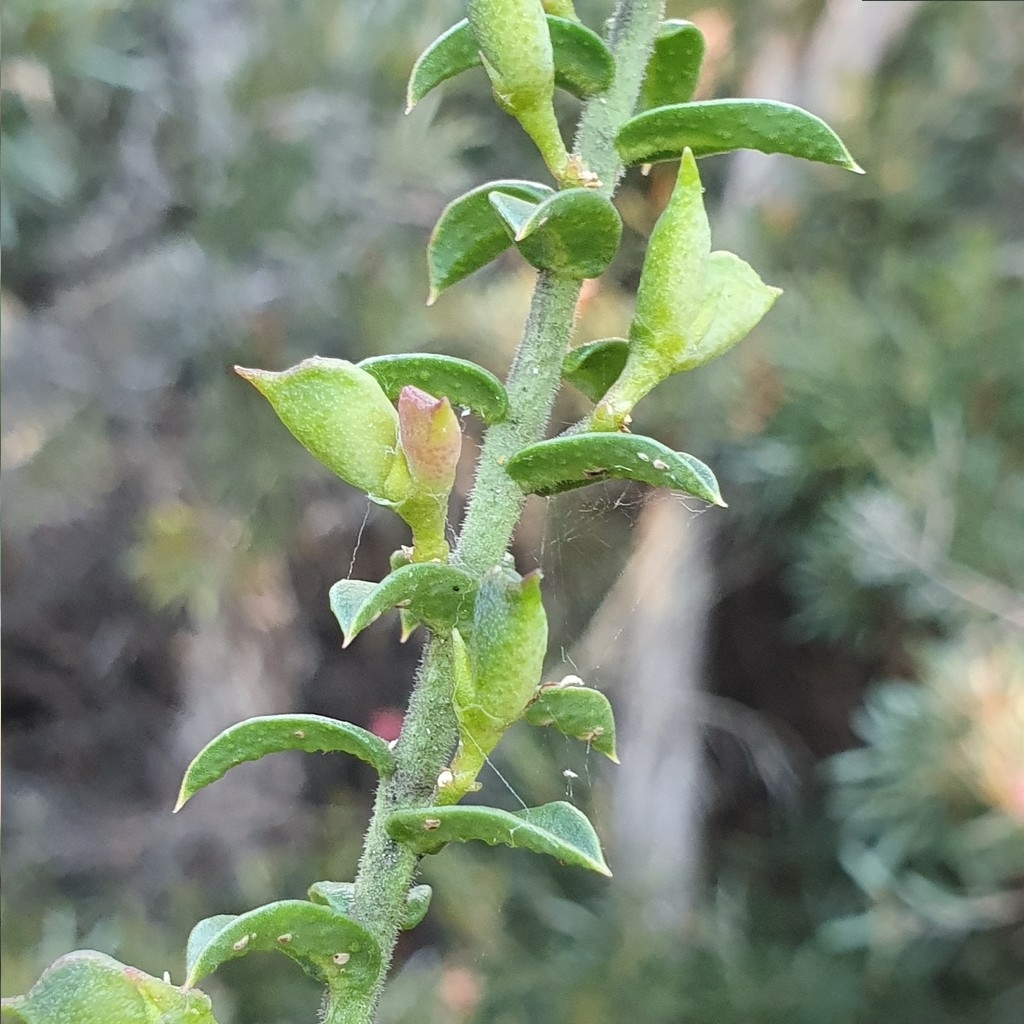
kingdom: Plantae
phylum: Tracheophyta
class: Magnoliopsida
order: Sapindales
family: Rutaceae
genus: Philotheca
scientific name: Philotheca buxifolia
